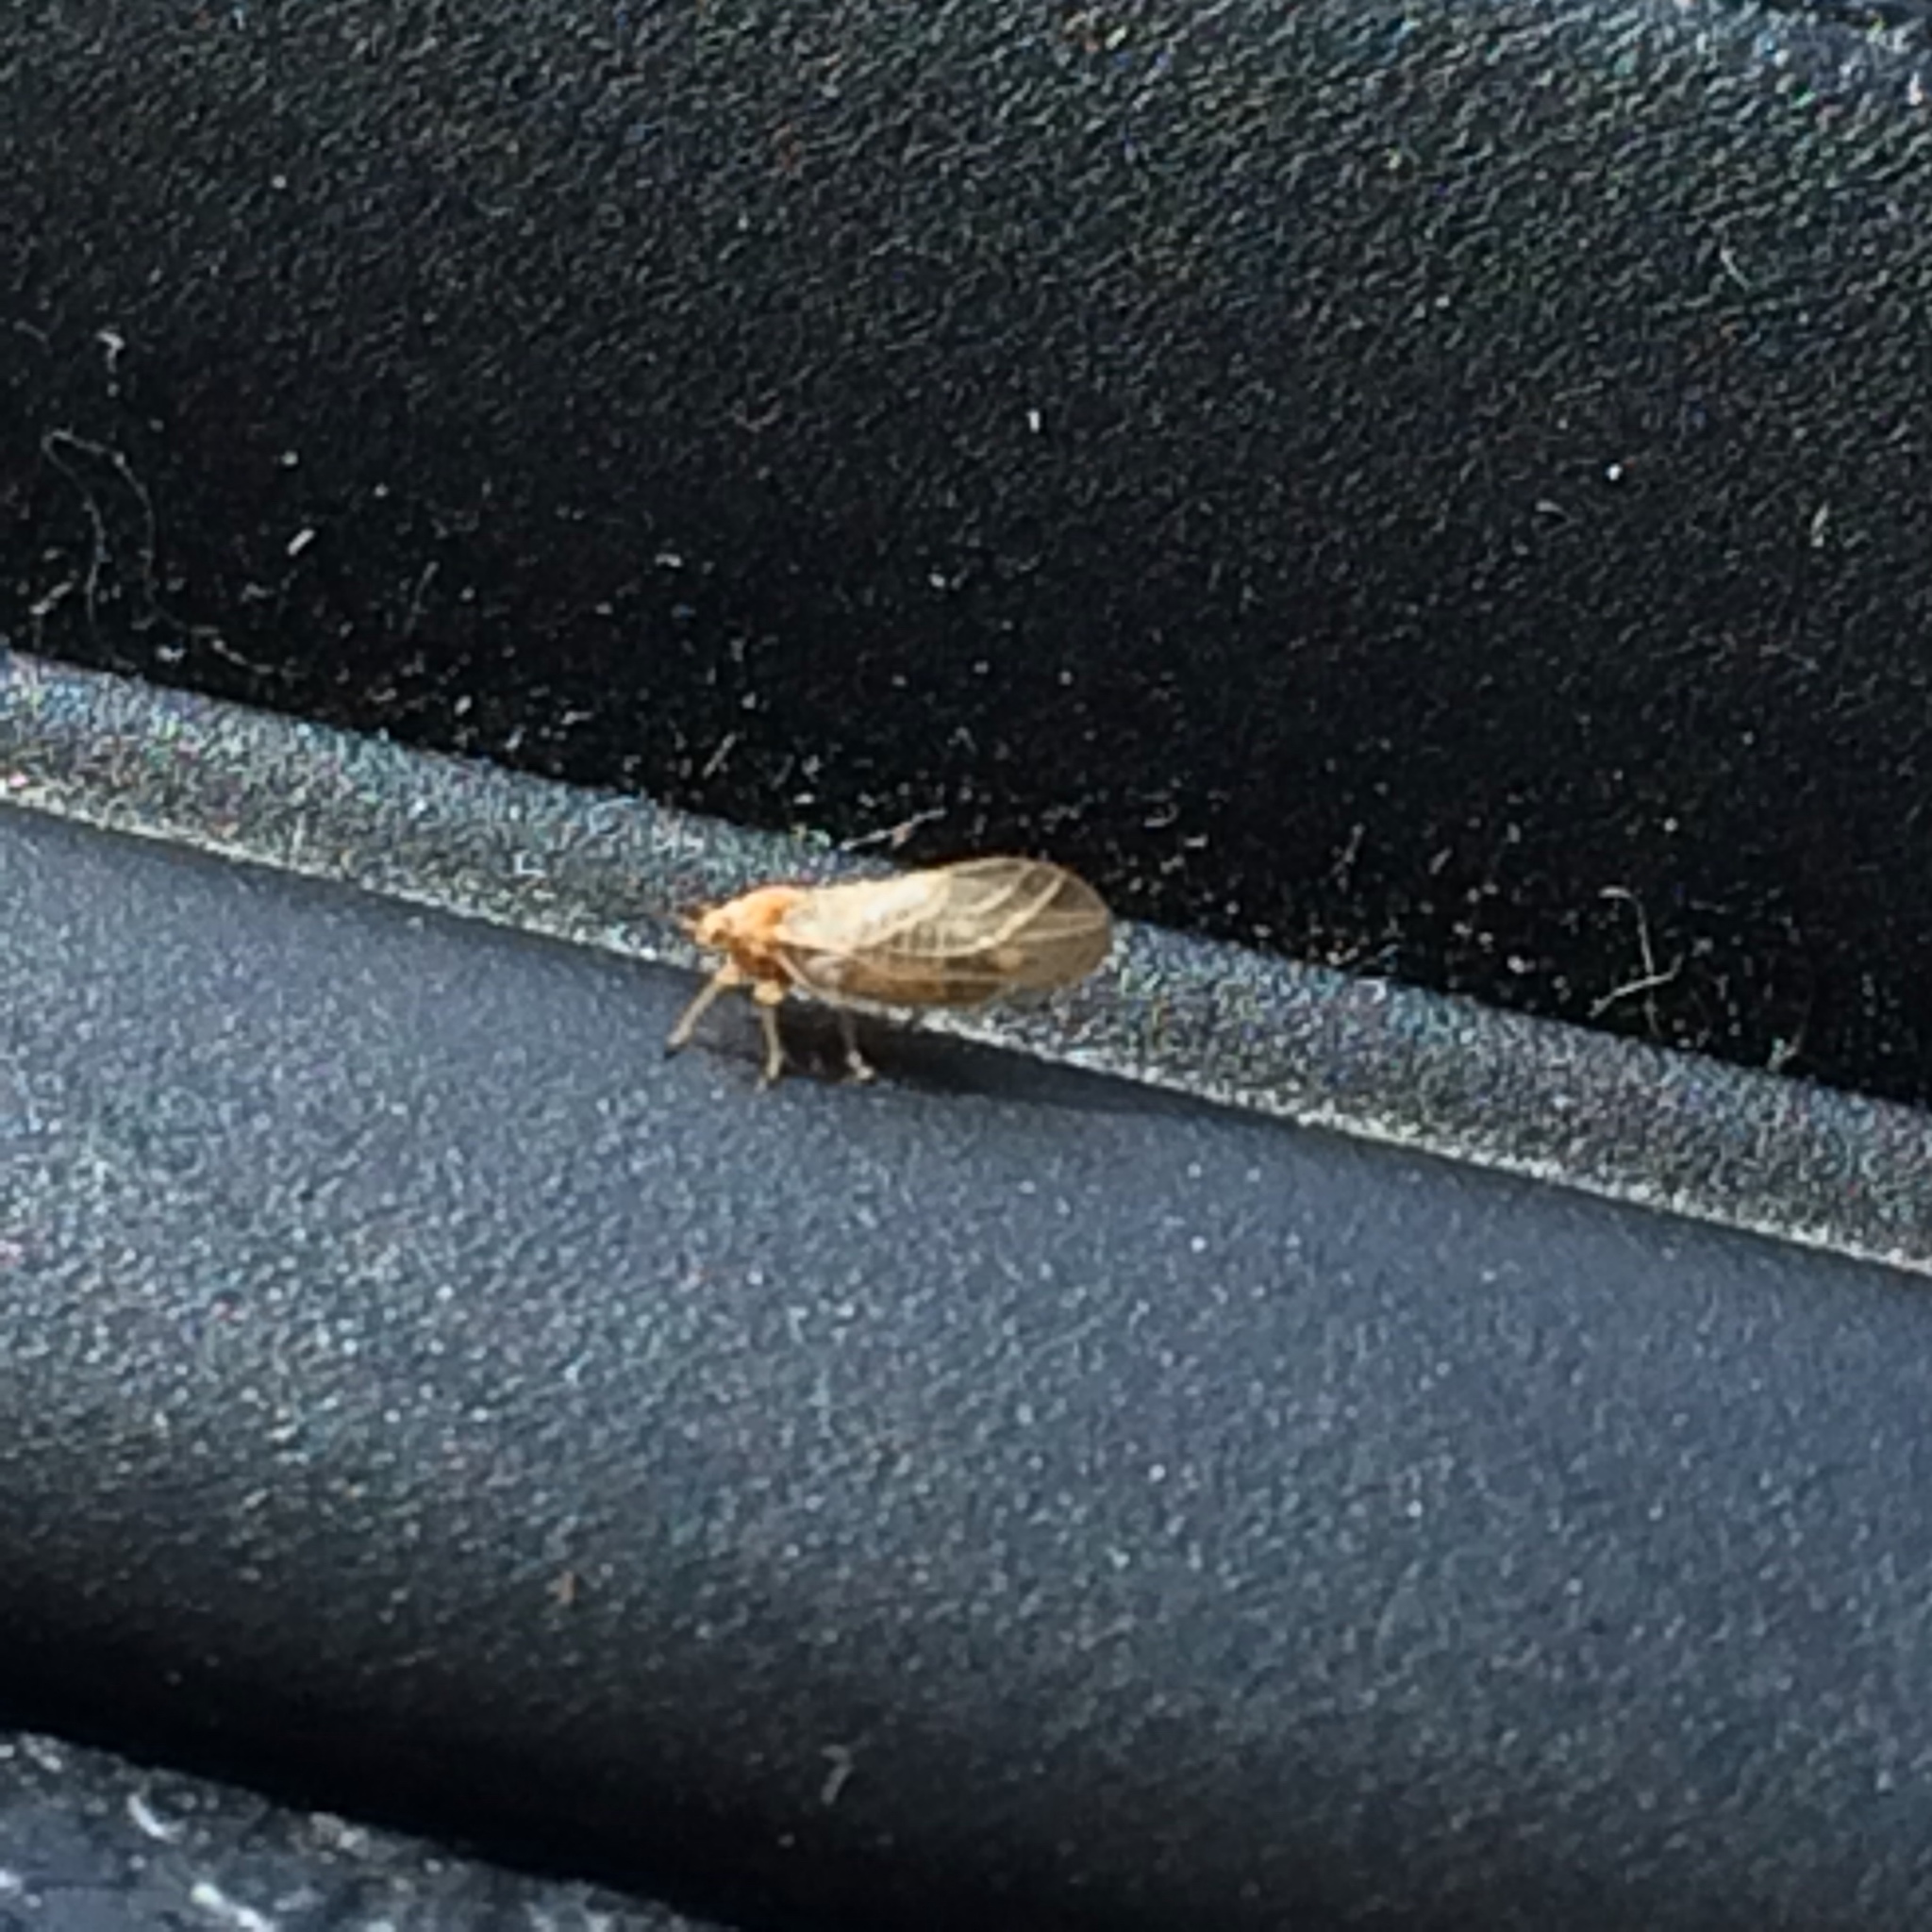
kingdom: Animalia
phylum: Arthropoda
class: Insecta
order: Hemiptera
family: Psyllidae
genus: Arytainilla
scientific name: Arytainilla spartiophila
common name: Psyllid
